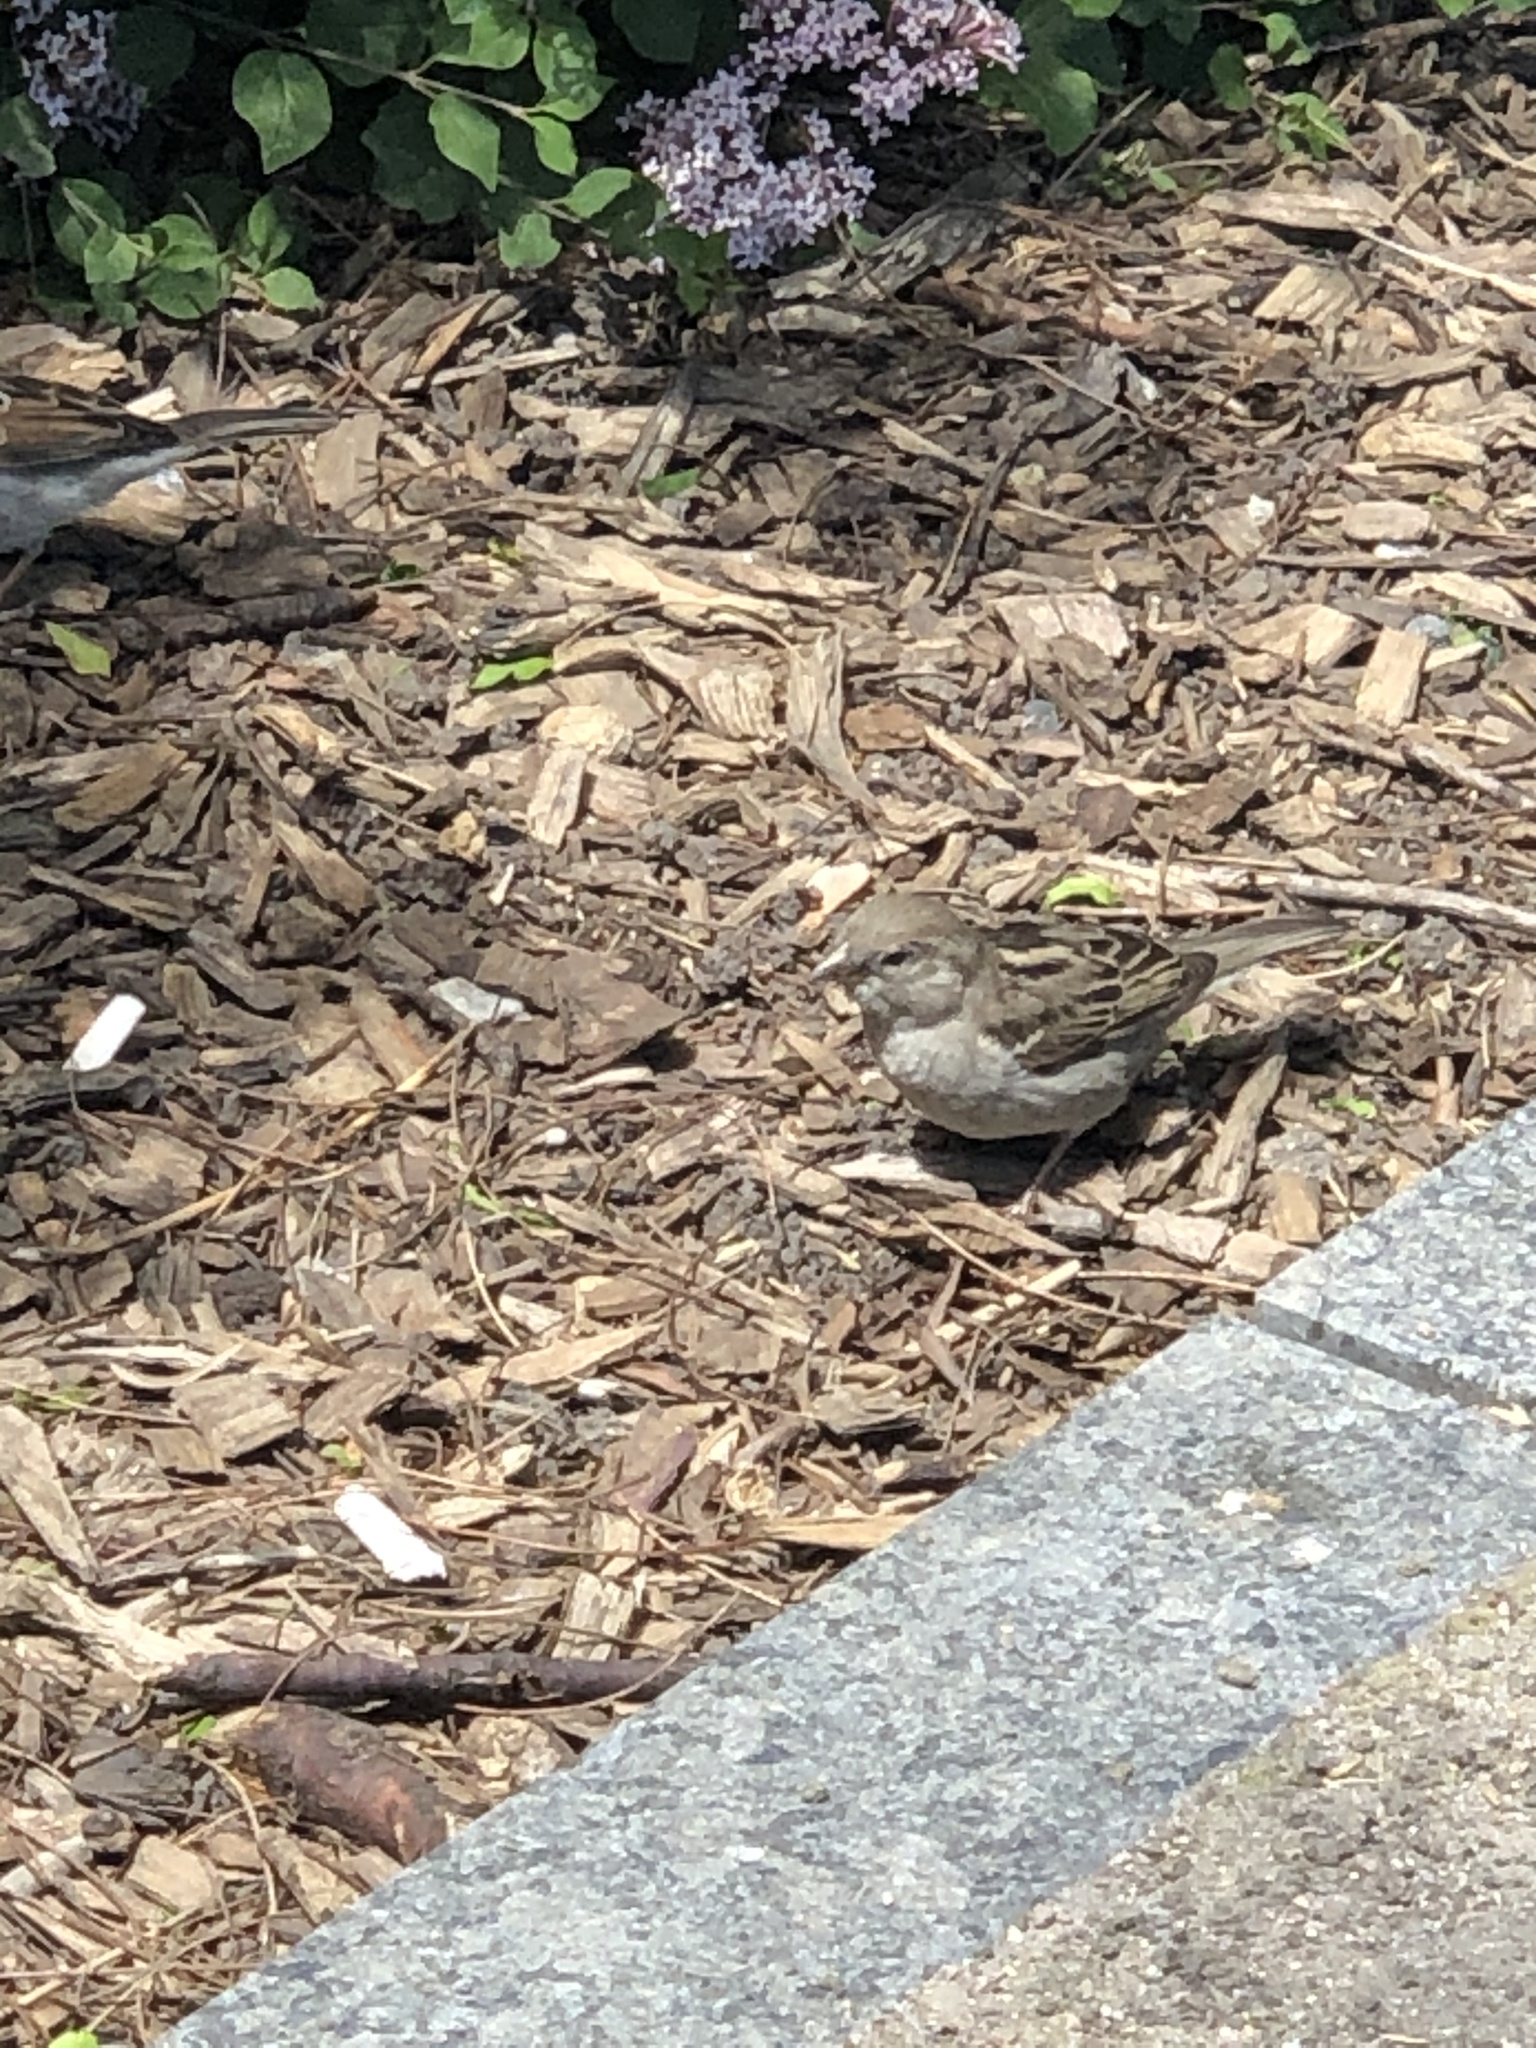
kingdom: Animalia
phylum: Chordata
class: Aves
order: Passeriformes
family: Passeridae
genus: Passer
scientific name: Passer domesticus
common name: House sparrow
